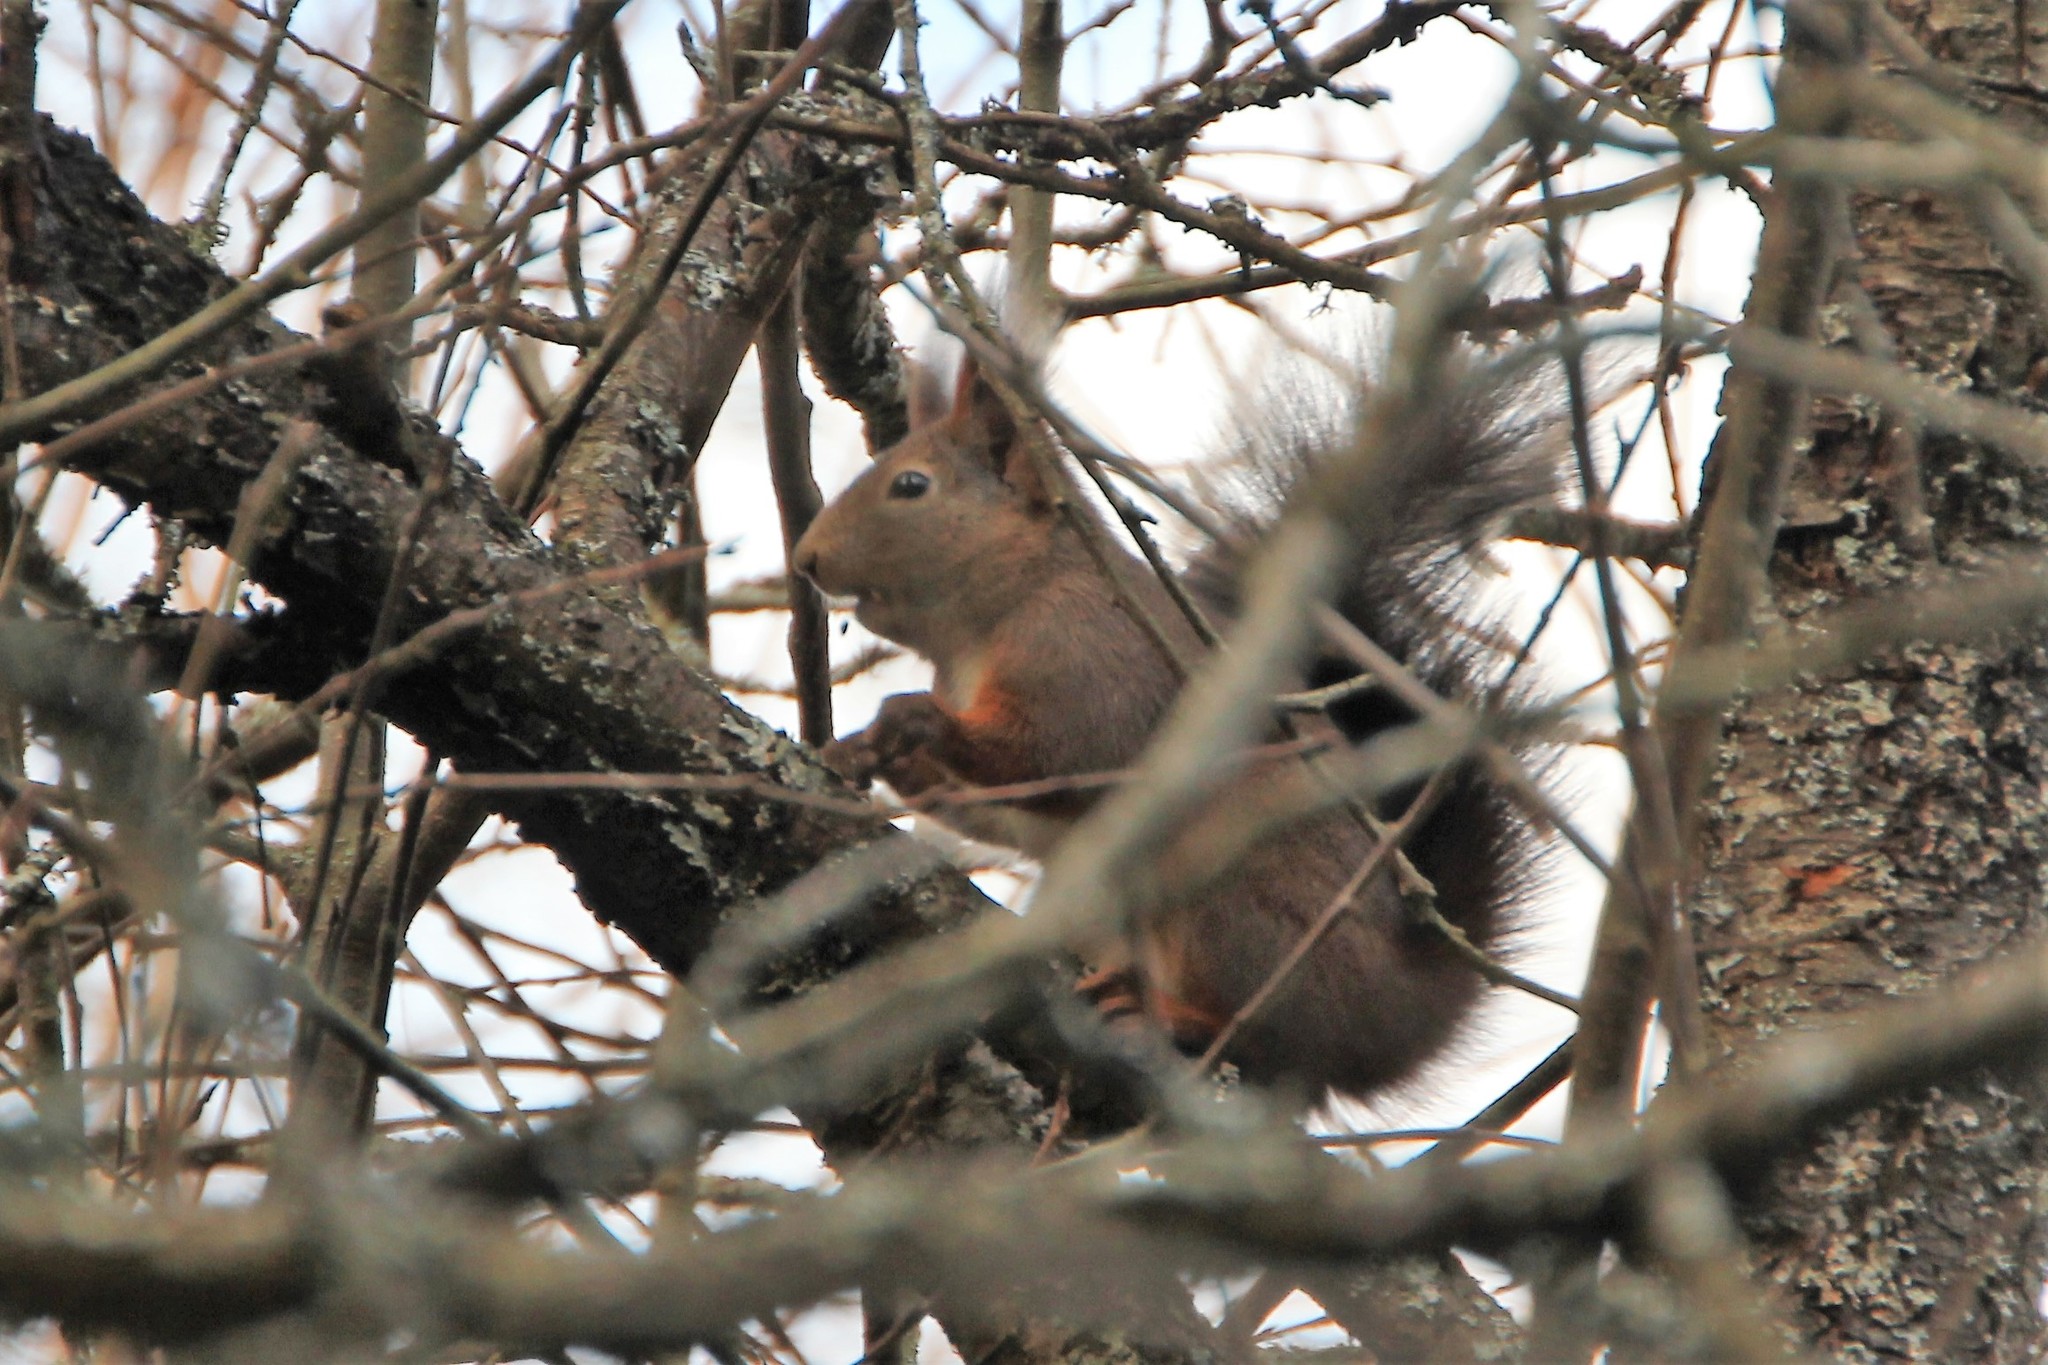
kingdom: Animalia
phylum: Chordata
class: Mammalia
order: Rodentia
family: Sciuridae
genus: Sciurus
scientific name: Sciurus vulgaris
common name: Eurasian red squirrel
